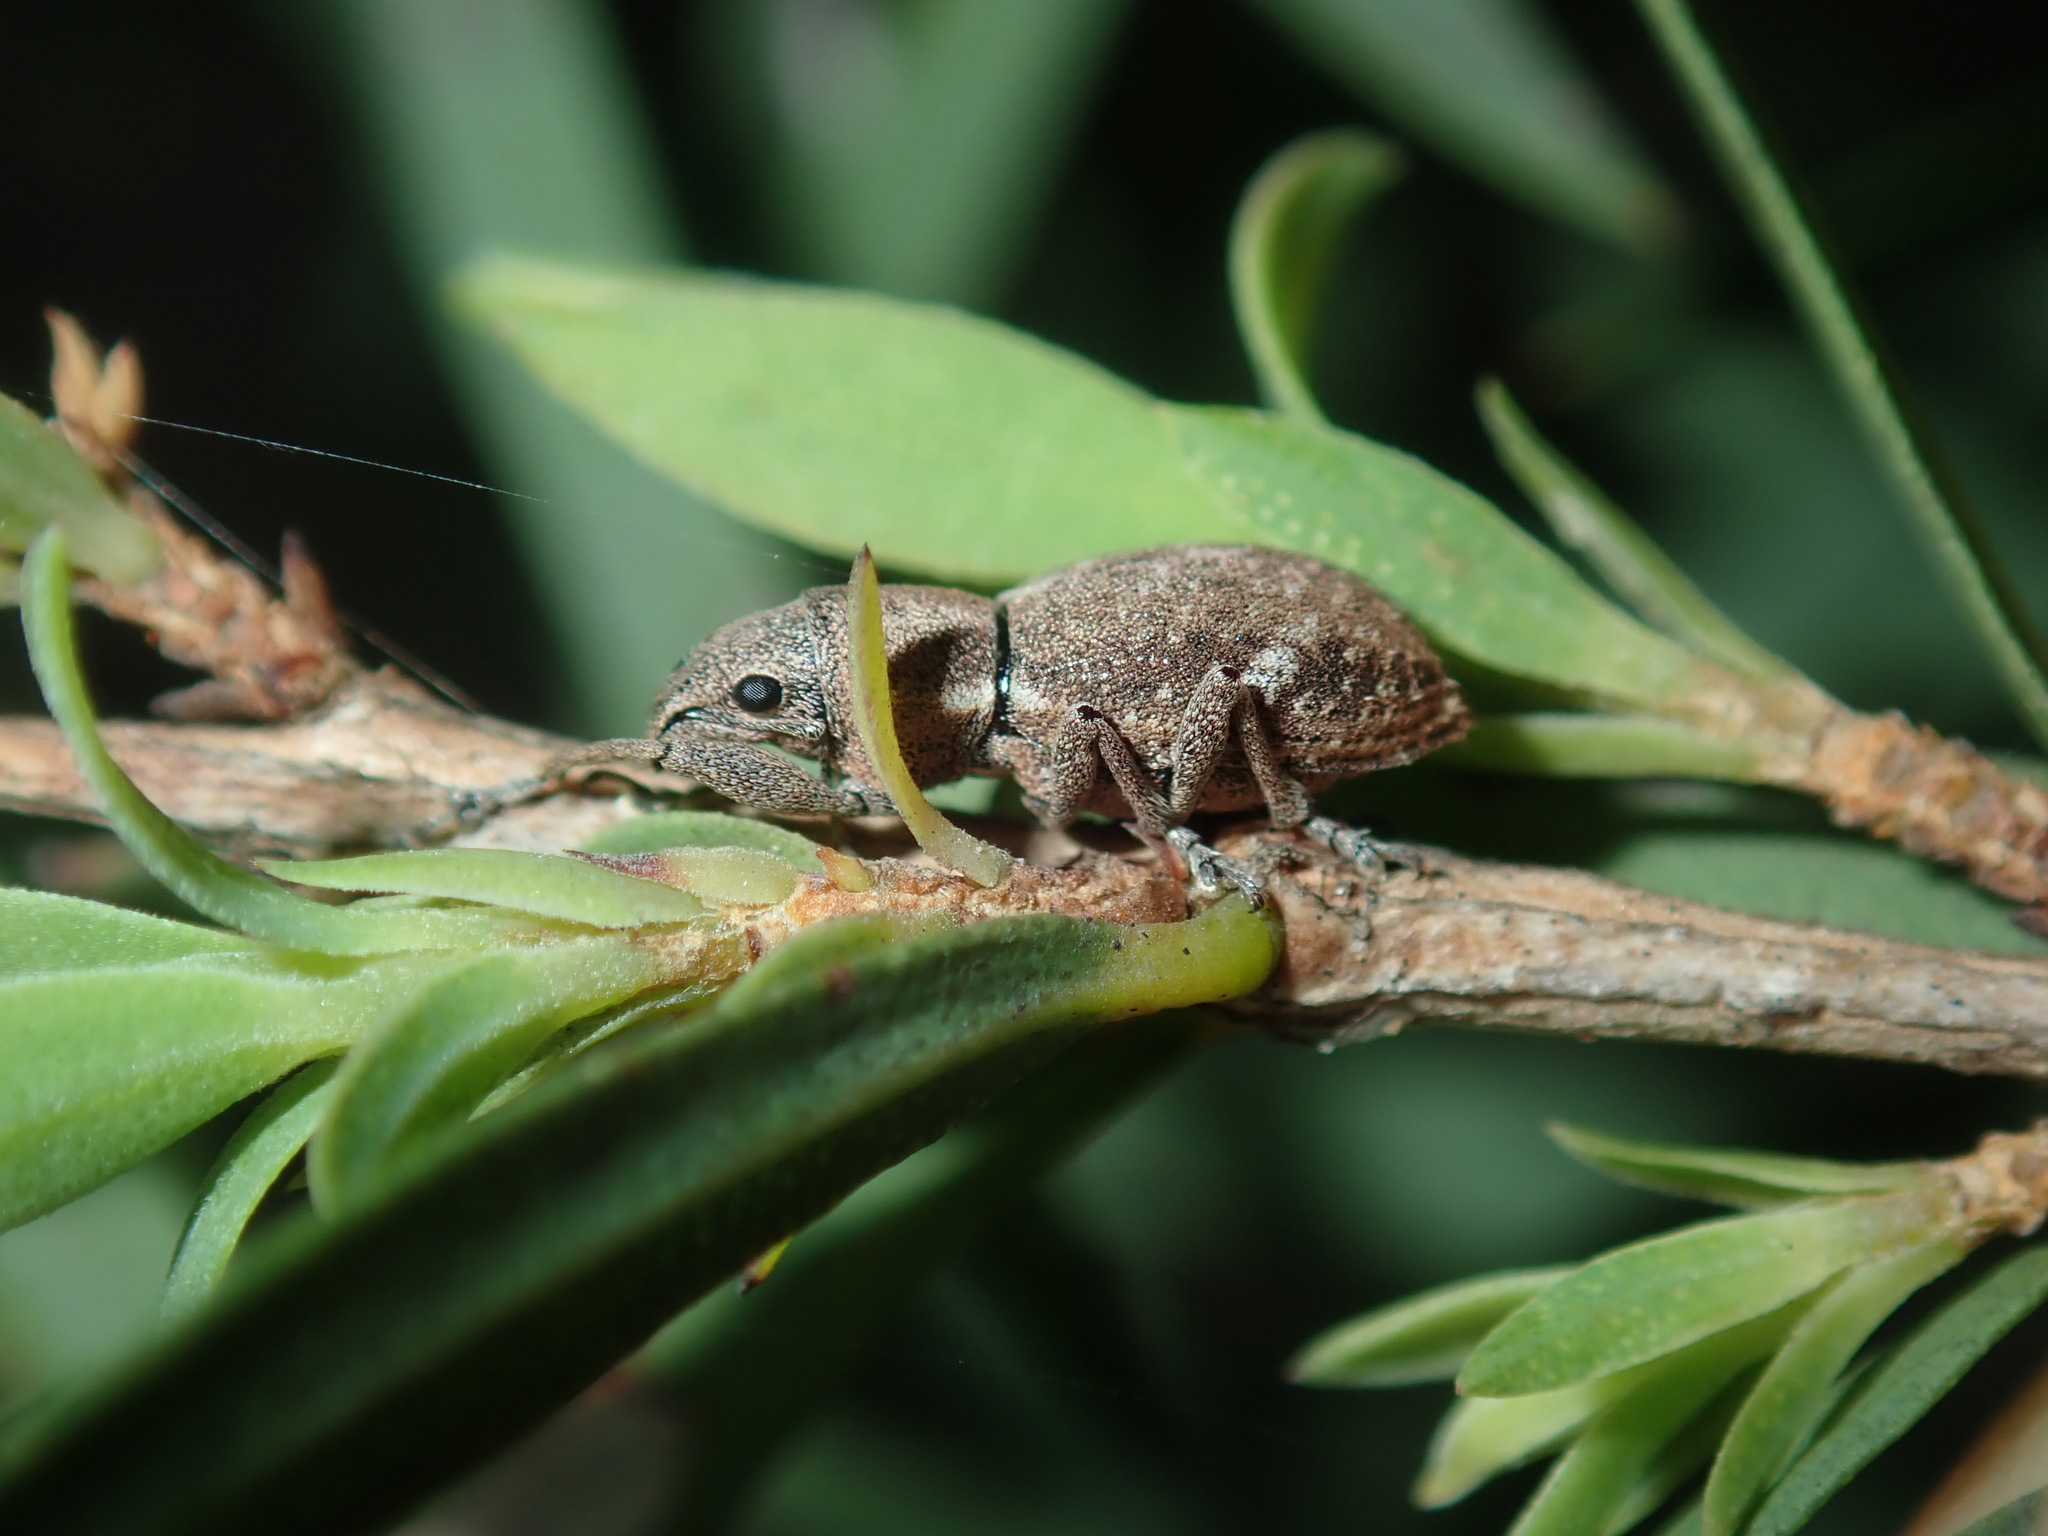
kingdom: Animalia
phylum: Arthropoda
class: Insecta
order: Coleoptera
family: Curculionidae
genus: Naupactus
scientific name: Naupactus cervinus
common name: Fuller rose beetle
